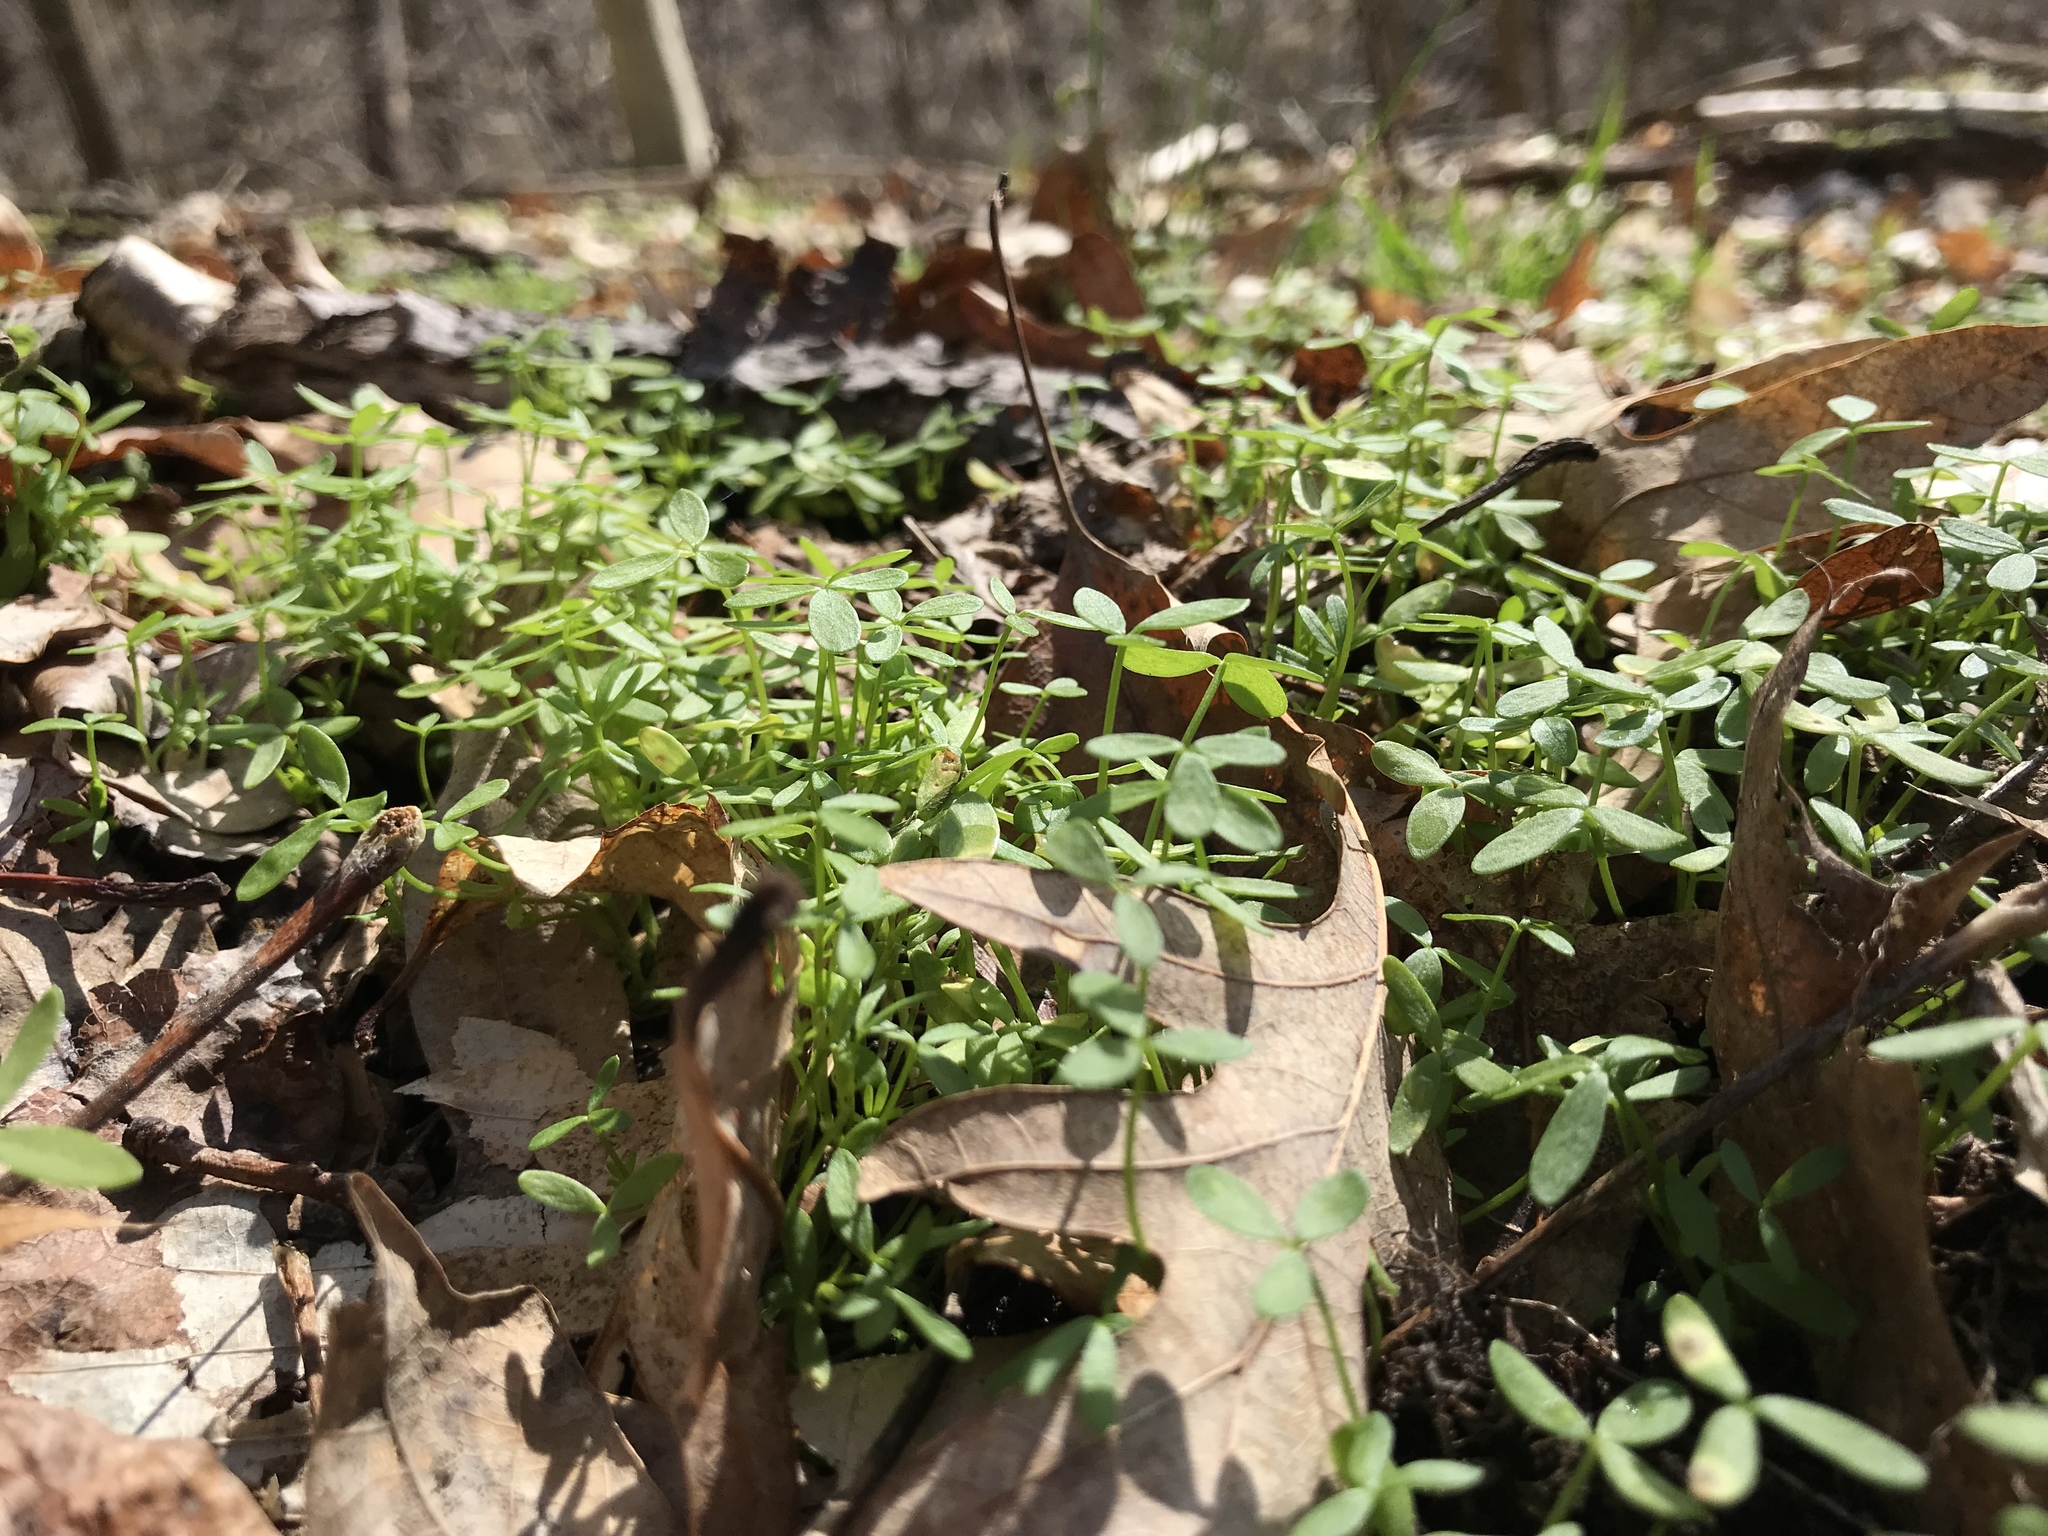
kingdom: Plantae
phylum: Tracheophyta
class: Magnoliopsida
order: Brassicales
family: Limnanthaceae
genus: Floerkea
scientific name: Floerkea proserpinacoides
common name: False mermaid
